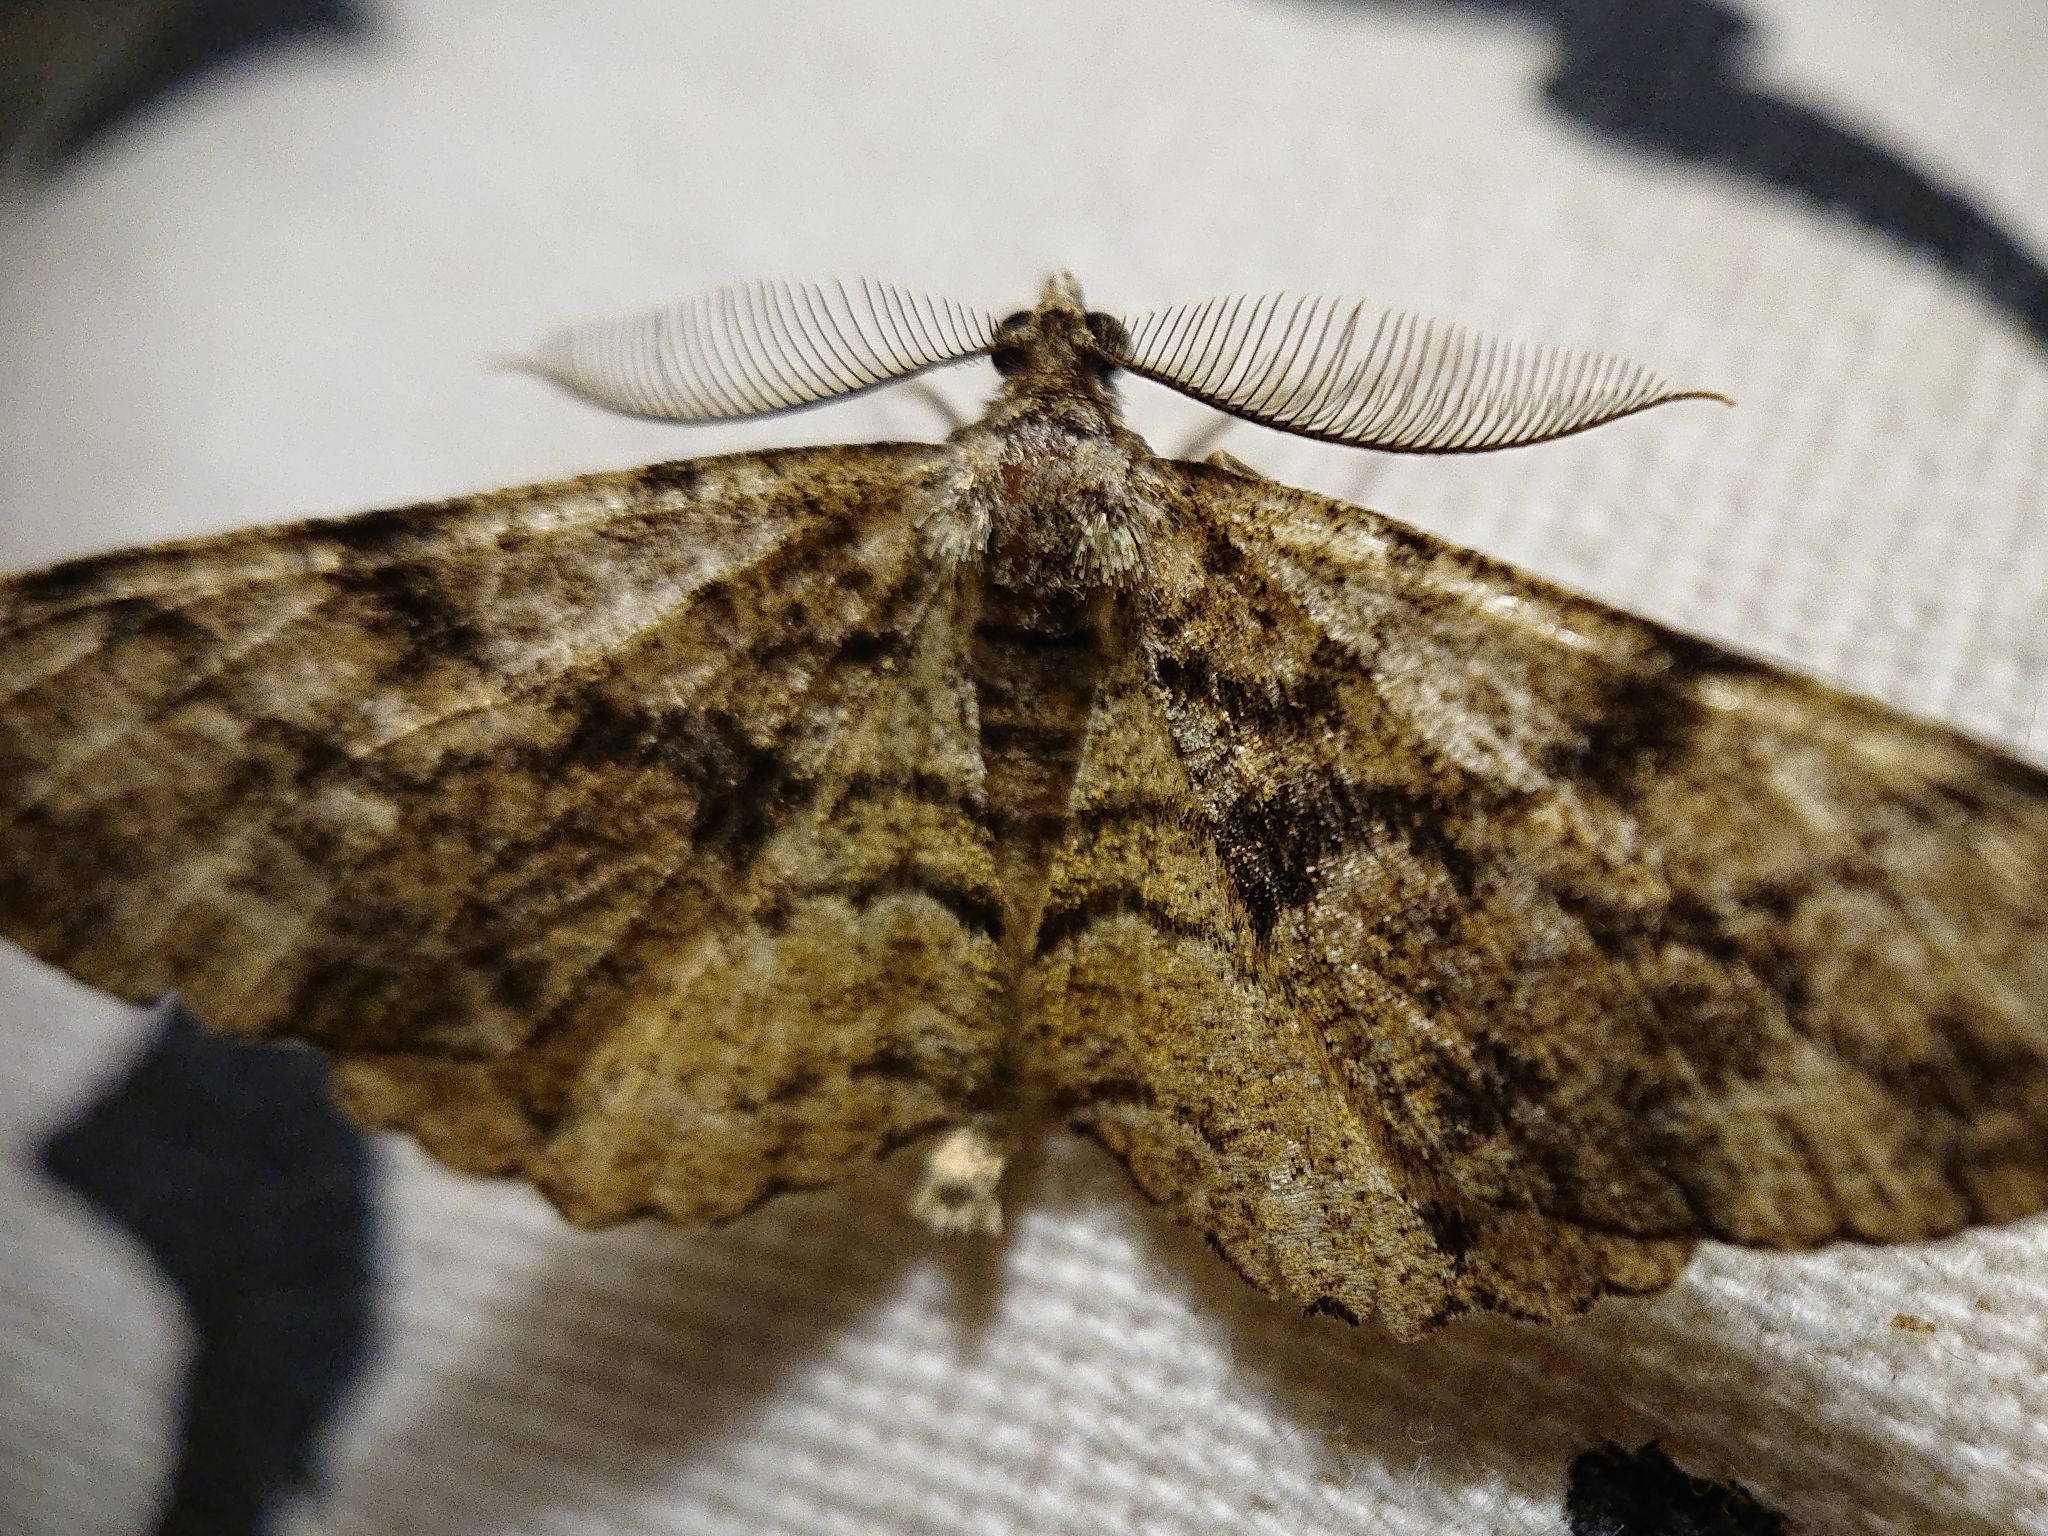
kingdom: Animalia
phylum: Arthropoda
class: Insecta
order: Lepidoptera
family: Geometridae
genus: Peribatodes
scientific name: Peribatodes secundaria
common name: Feathered beauty
